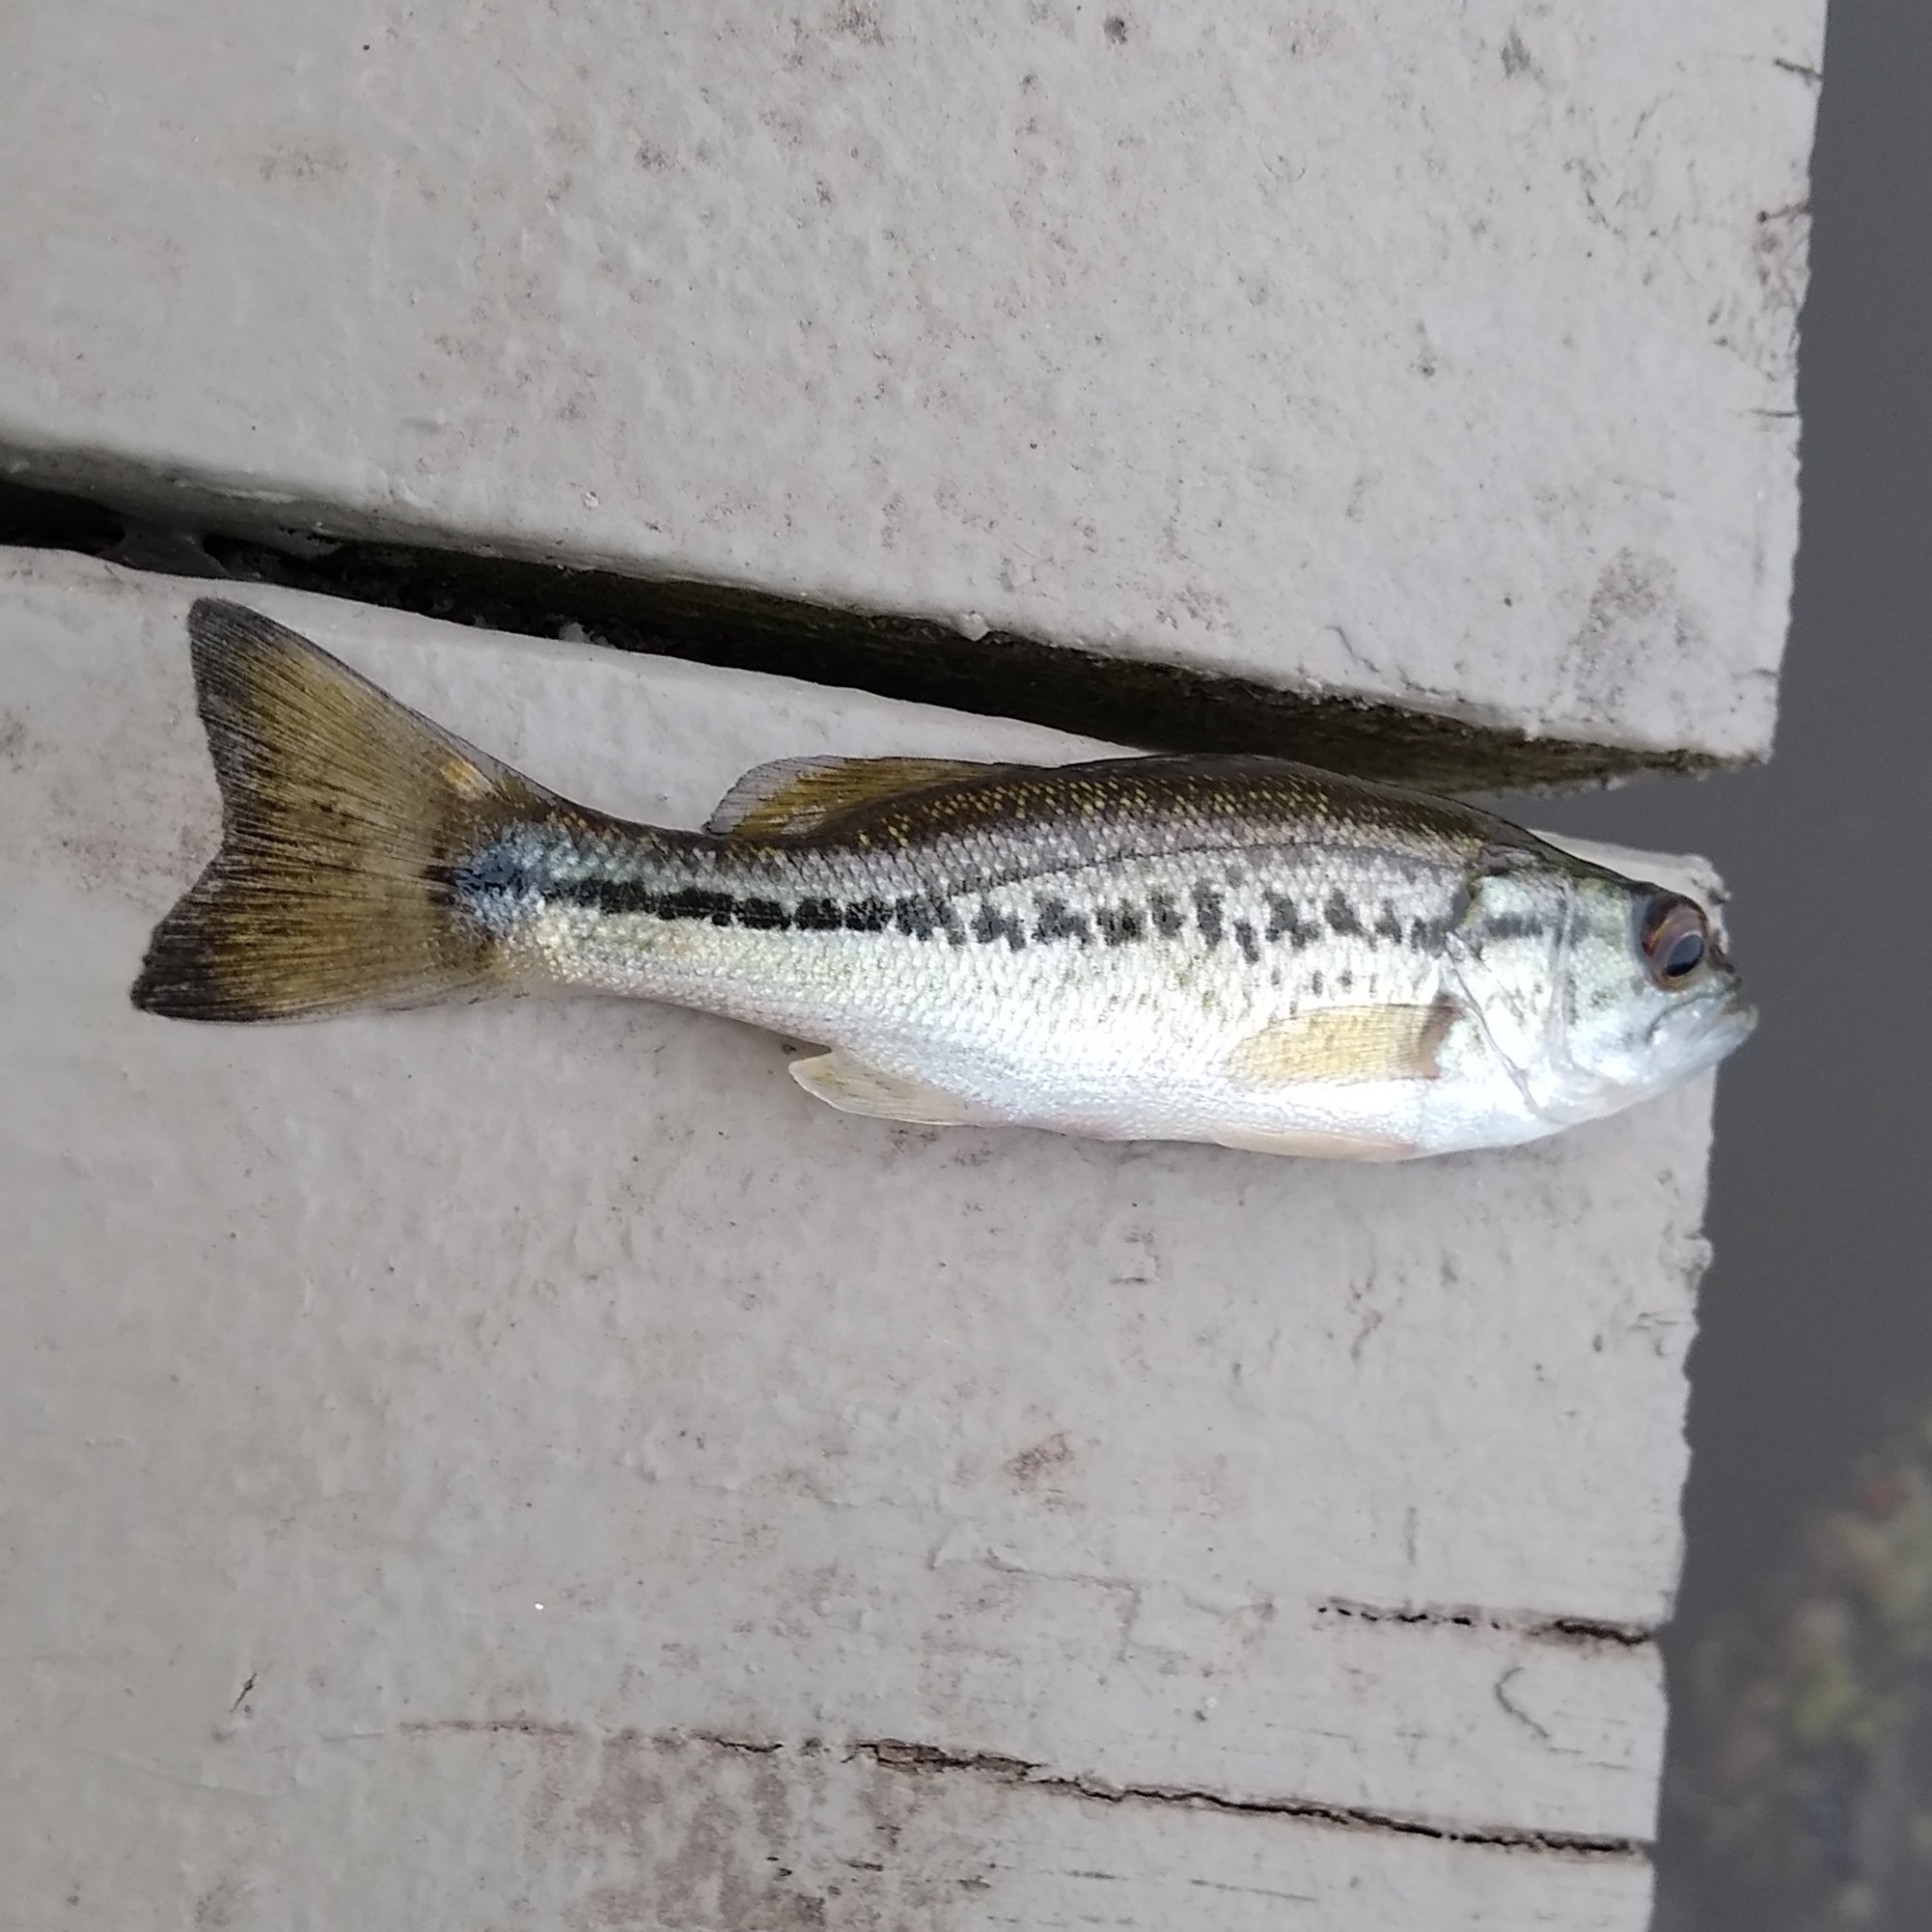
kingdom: Animalia
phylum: Chordata
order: Perciformes
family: Centrarchidae
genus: Micropterus
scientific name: Micropterus
